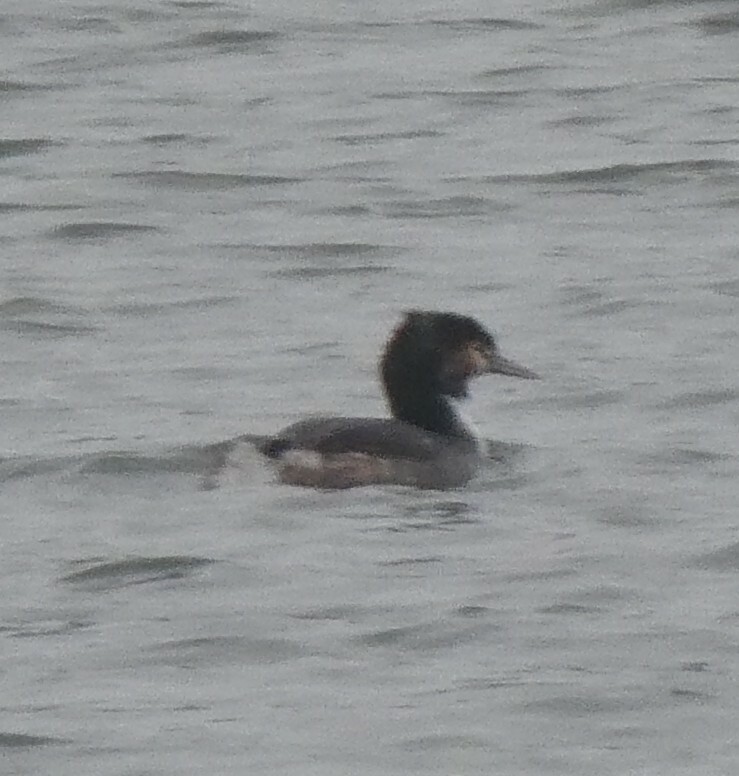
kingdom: Animalia
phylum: Chordata
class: Aves
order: Podicipediformes
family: Podicipedidae
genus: Podiceps
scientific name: Podiceps cristatus
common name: Great crested grebe
